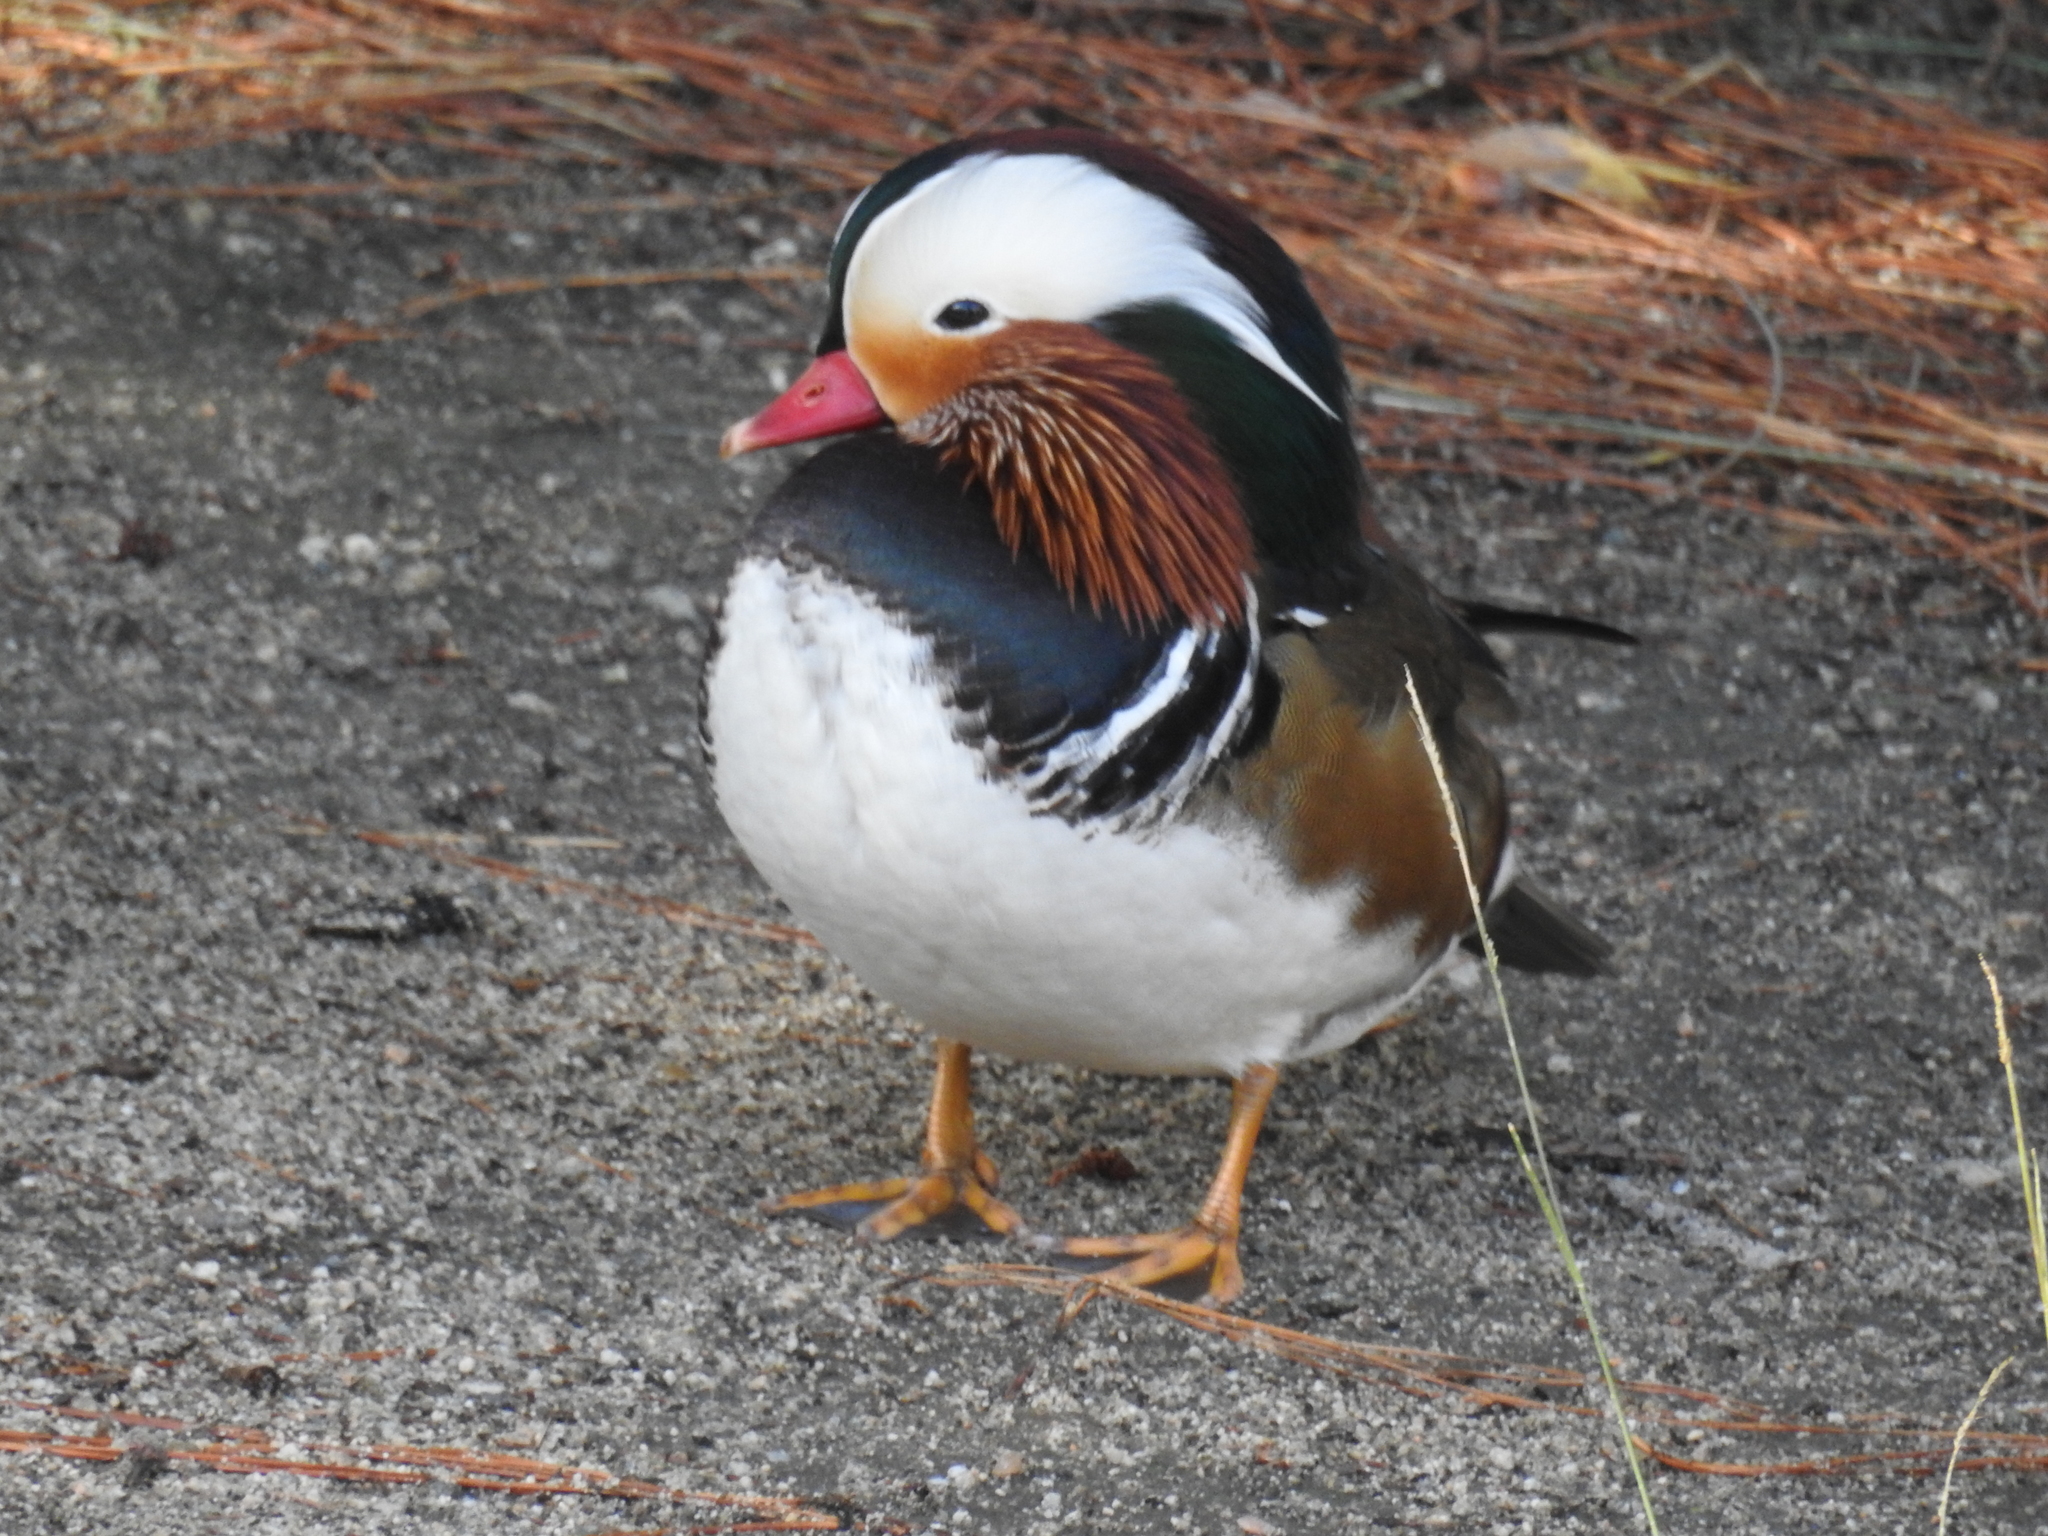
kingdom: Animalia
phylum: Chordata
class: Aves
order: Anseriformes
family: Anatidae
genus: Aix
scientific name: Aix galericulata
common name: Mandarin duck
